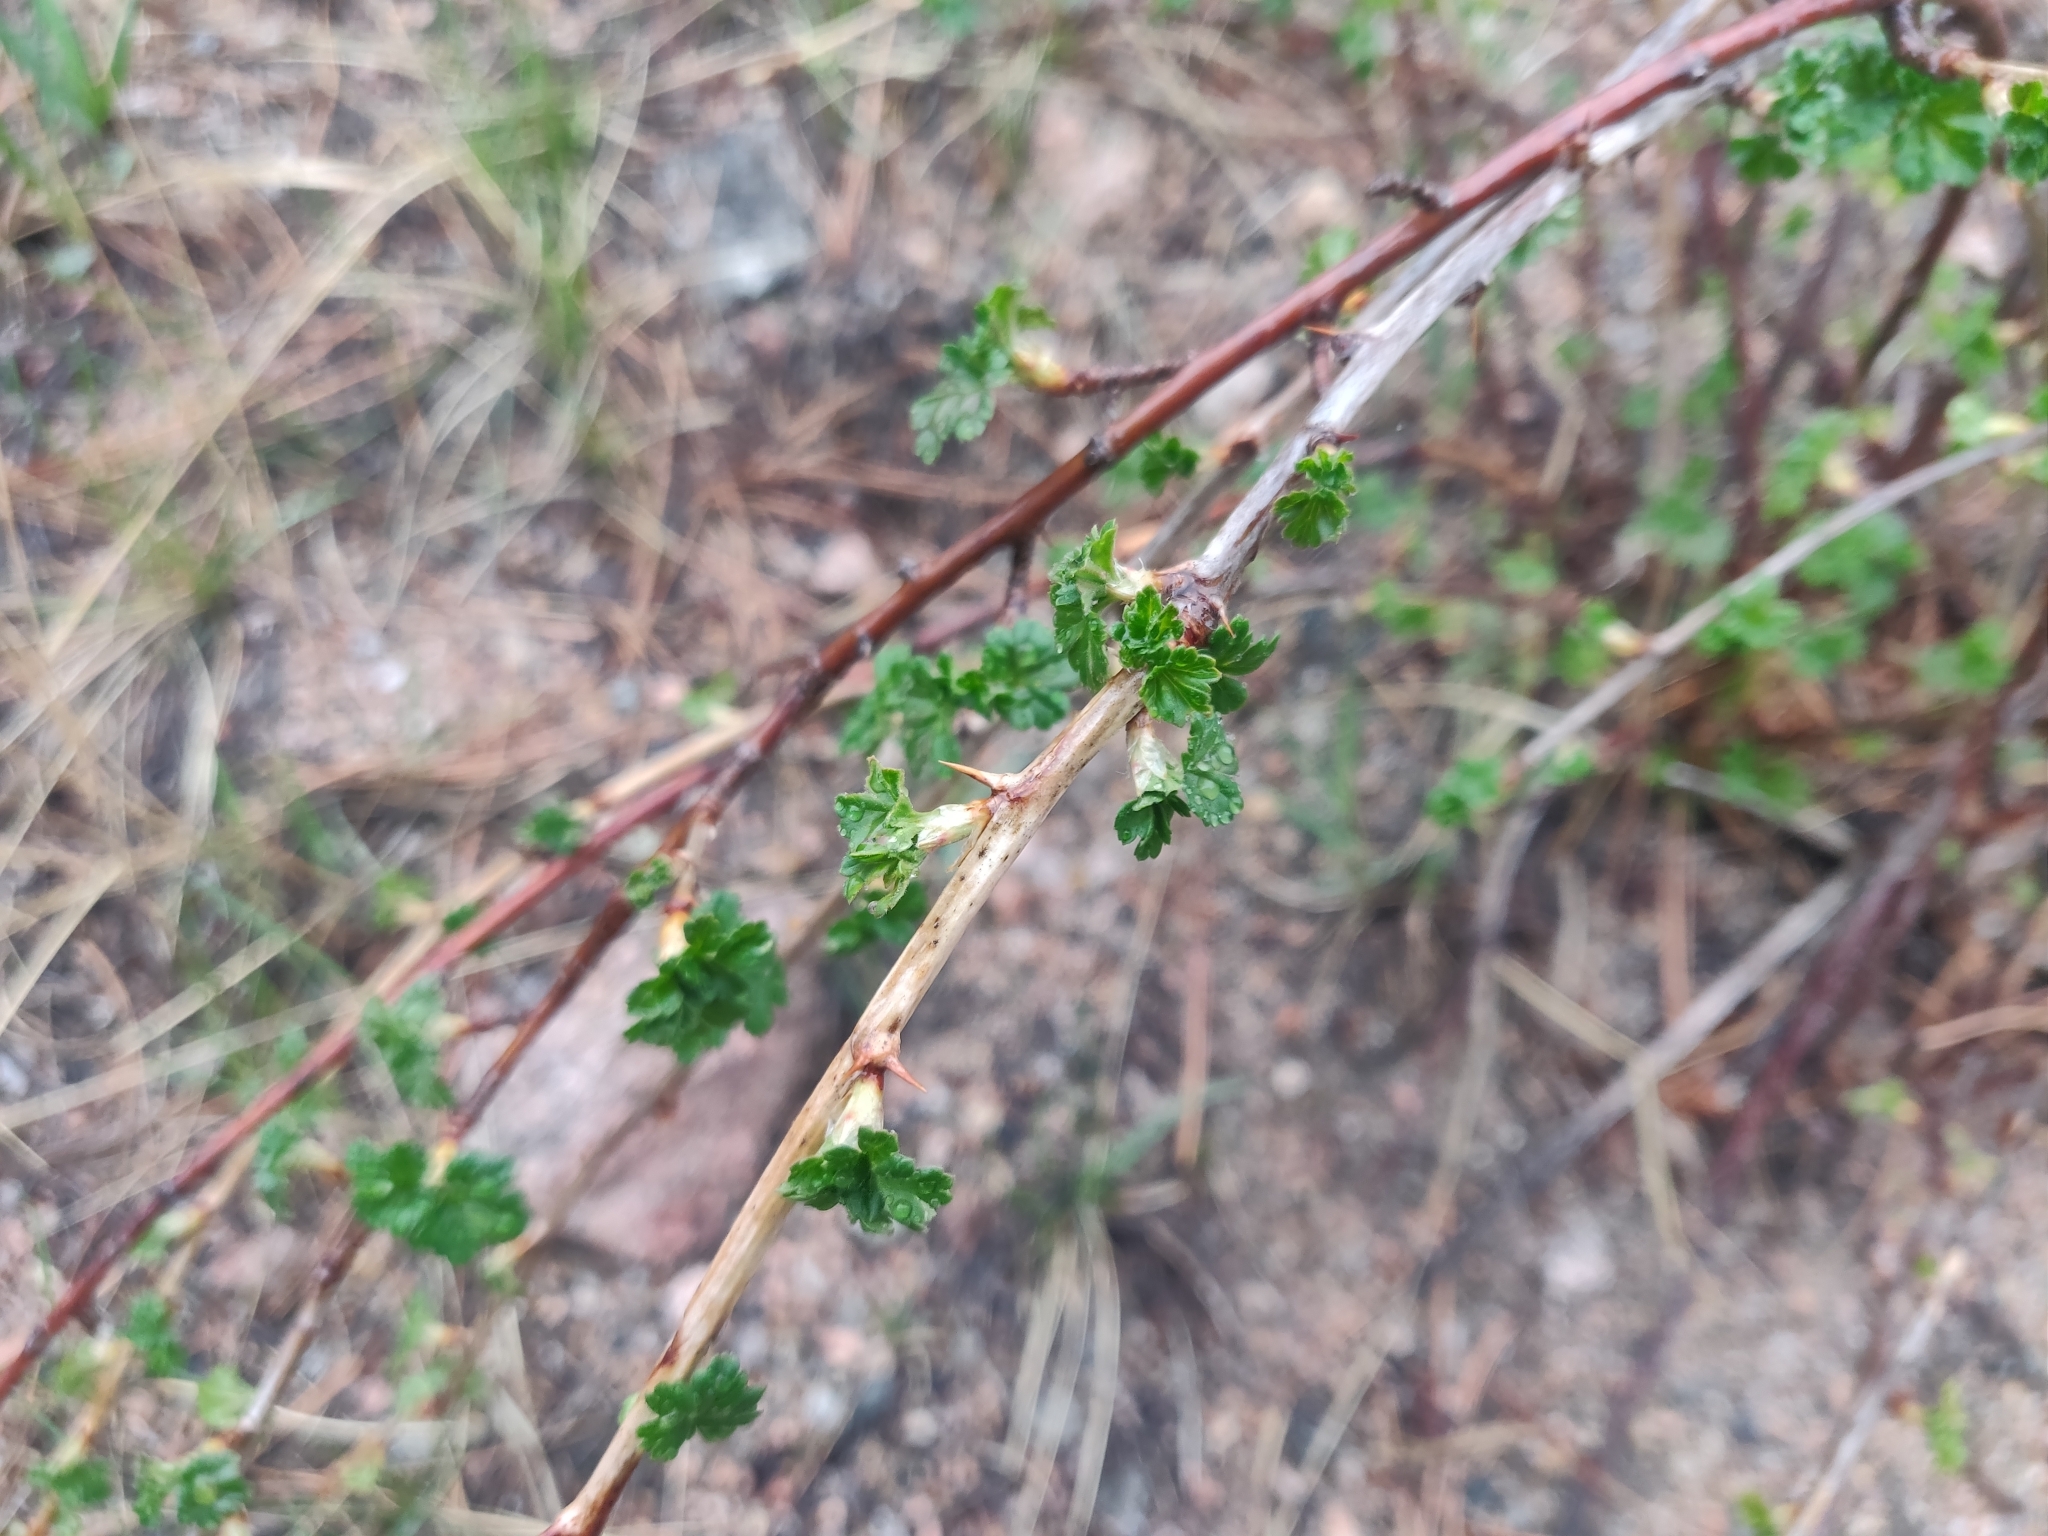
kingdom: Plantae
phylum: Tracheophyta
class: Magnoliopsida
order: Saxifragales
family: Grossulariaceae
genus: Ribes
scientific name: Ribes inerme
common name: White-stem gooseberry
